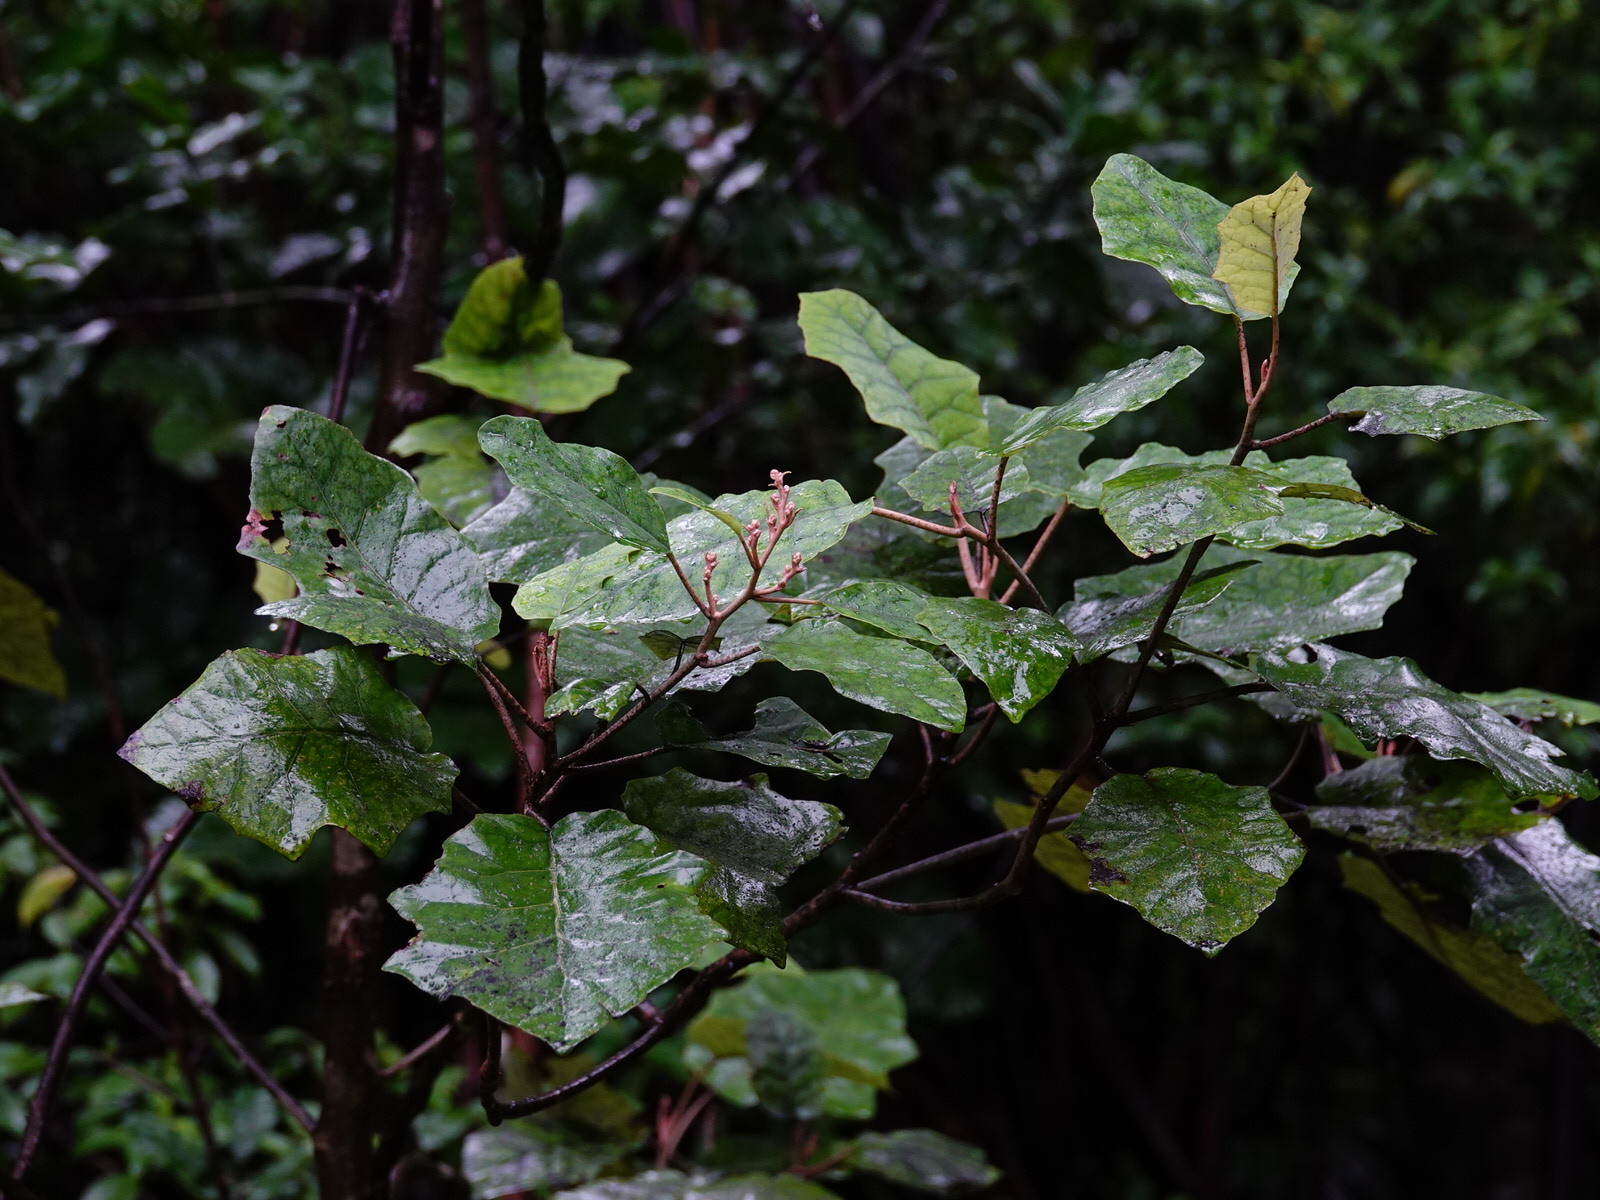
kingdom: Plantae
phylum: Tracheophyta
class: Magnoliopsida
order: Asterales
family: Asteraceae
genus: Brachyglottis
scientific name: Brachyglottis repanda
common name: Hedge ragwort
